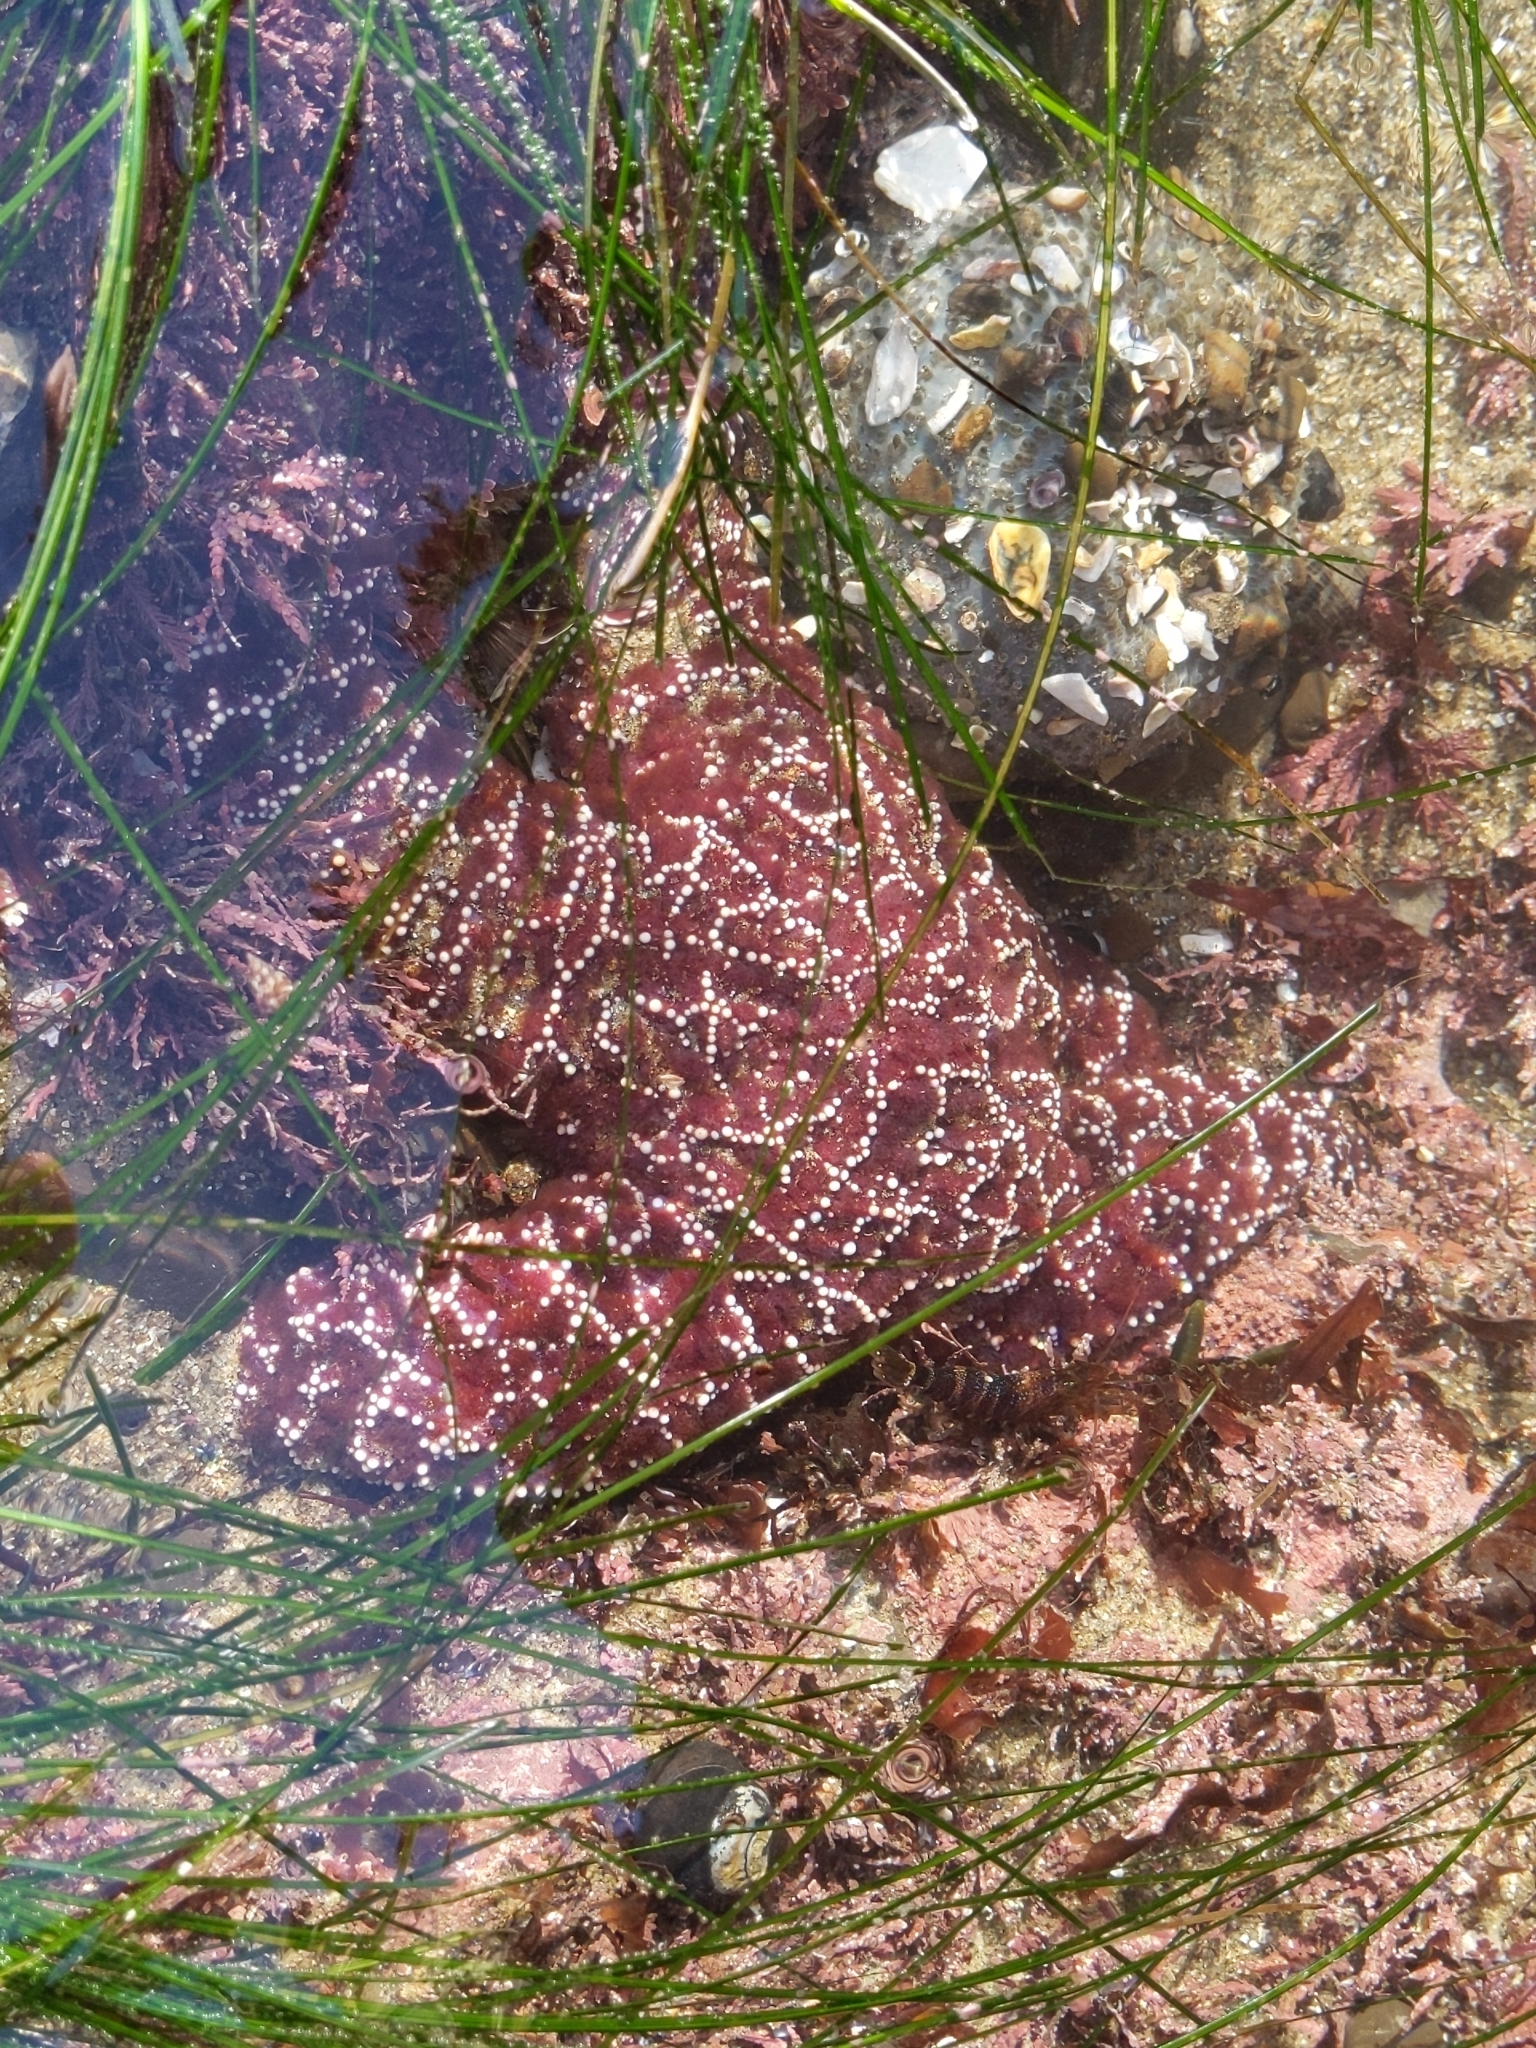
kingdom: Animalia
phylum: Echinodermata
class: Asteroidea
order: Forcipulatida
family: Asteriidae
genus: Pisaster
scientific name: Pisaster ochraceus
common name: Ochre stars
